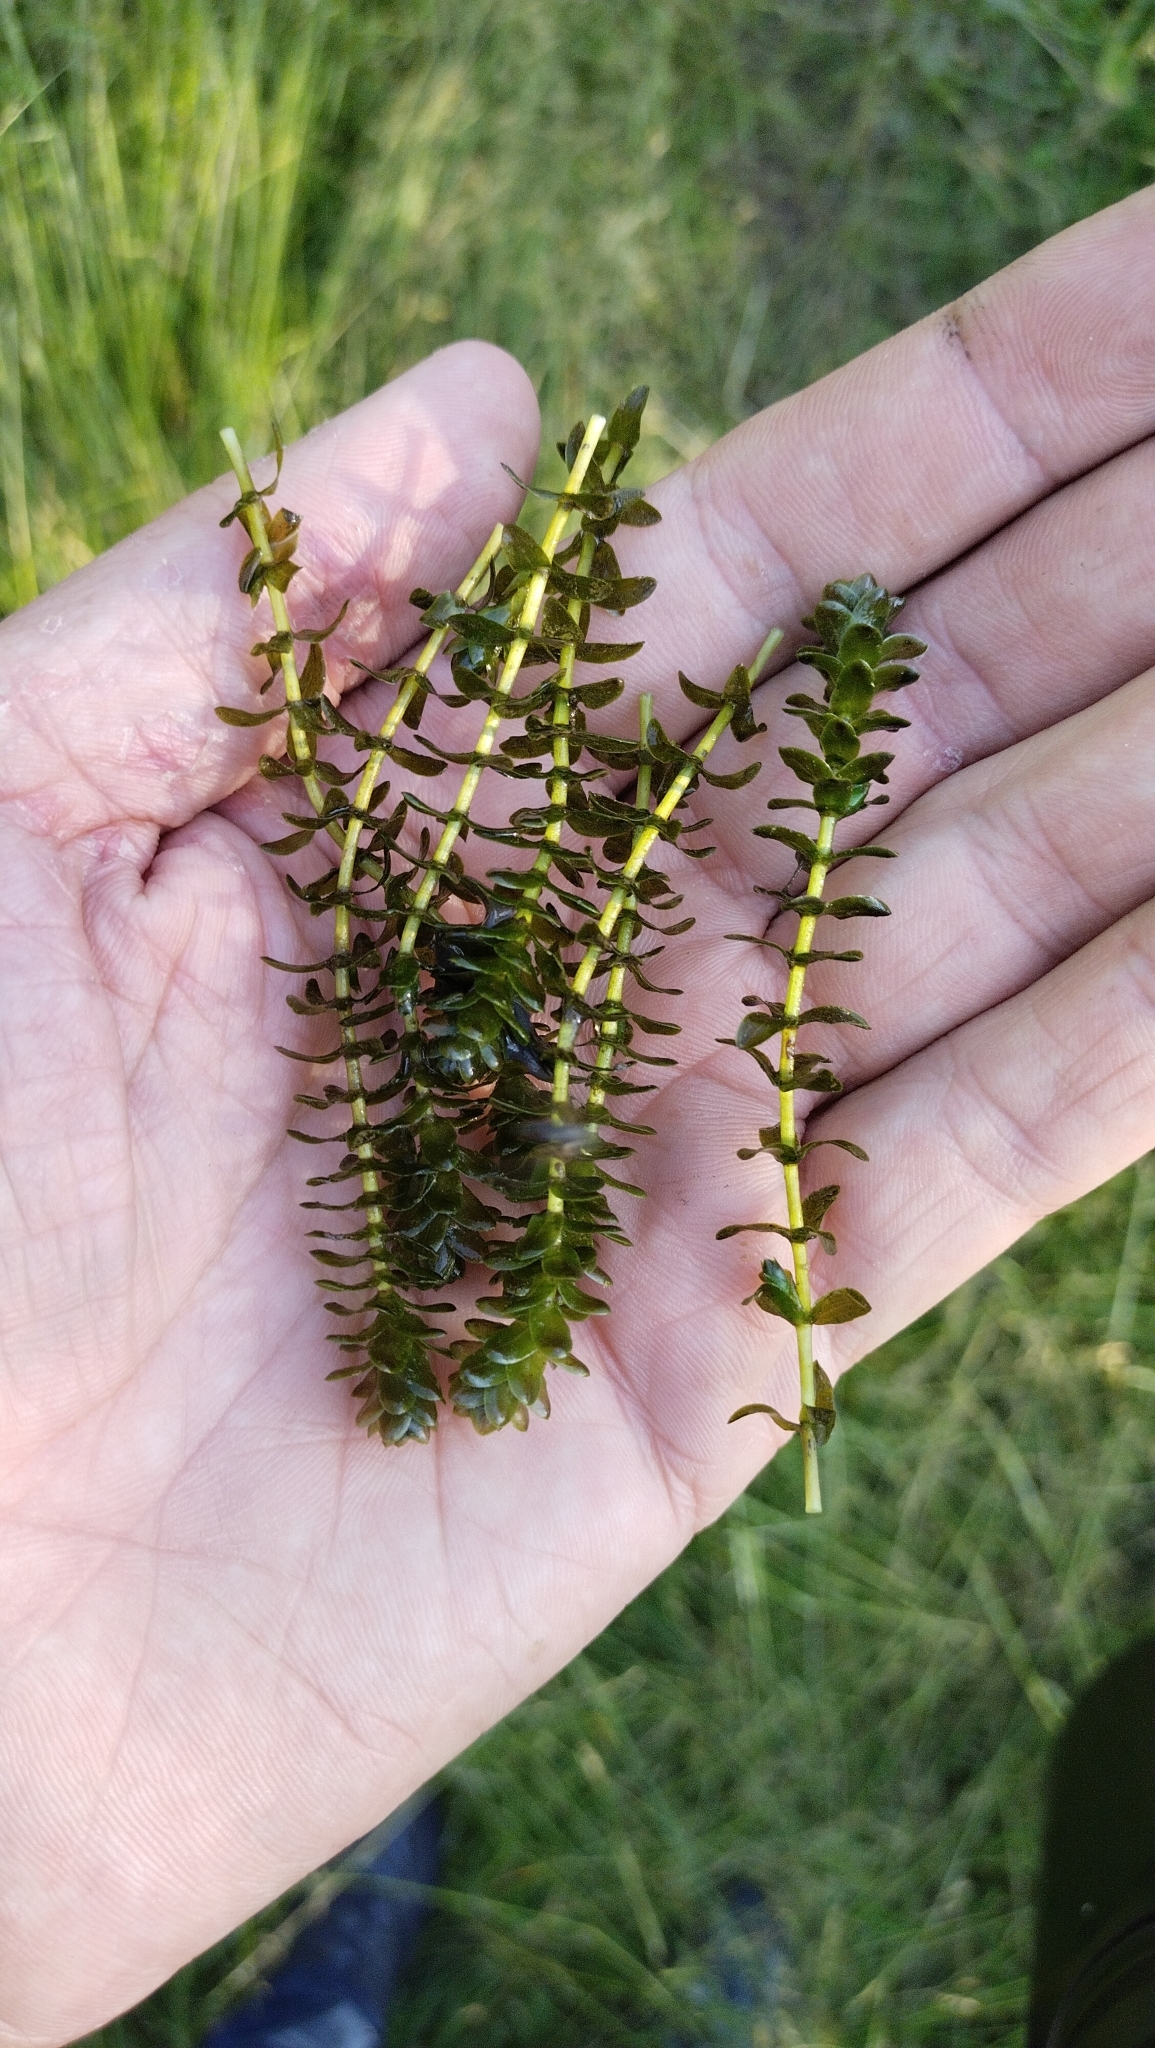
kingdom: Plantae
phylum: Tracheophyta
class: Liliopsida
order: Alismatales
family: Hydrocharitaceae
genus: Elodea
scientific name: Elodea canadensis
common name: Canadian waterweed
